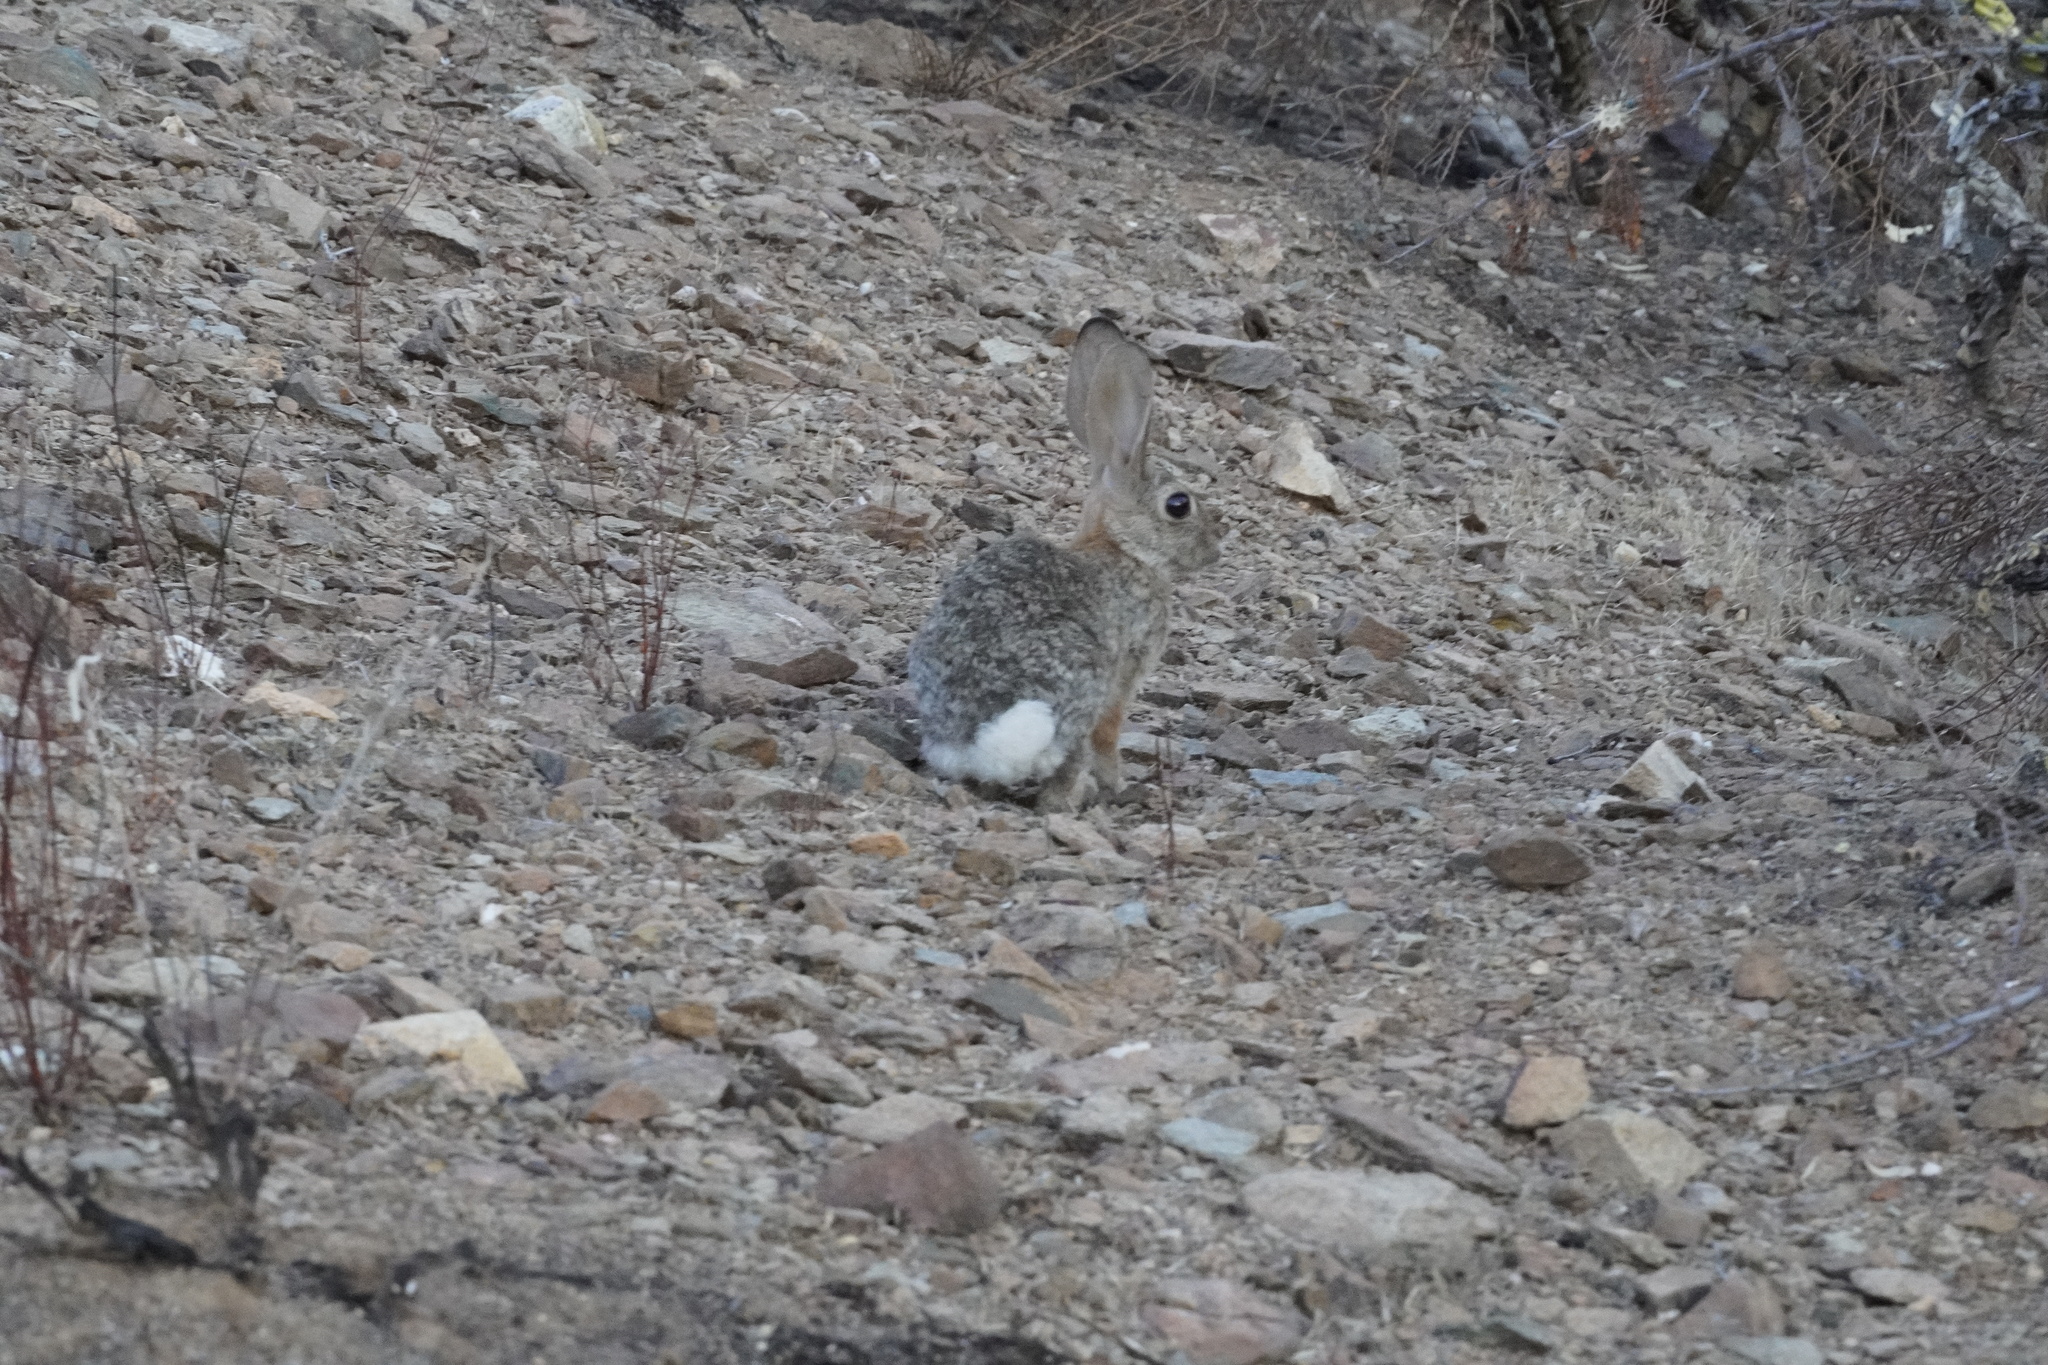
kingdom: Animalia
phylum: Chordata
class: Mammalia
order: Lagomorpha
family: Leporidae
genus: Sylvilagus
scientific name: Sylvilagus audubonii
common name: Desert cottontail
